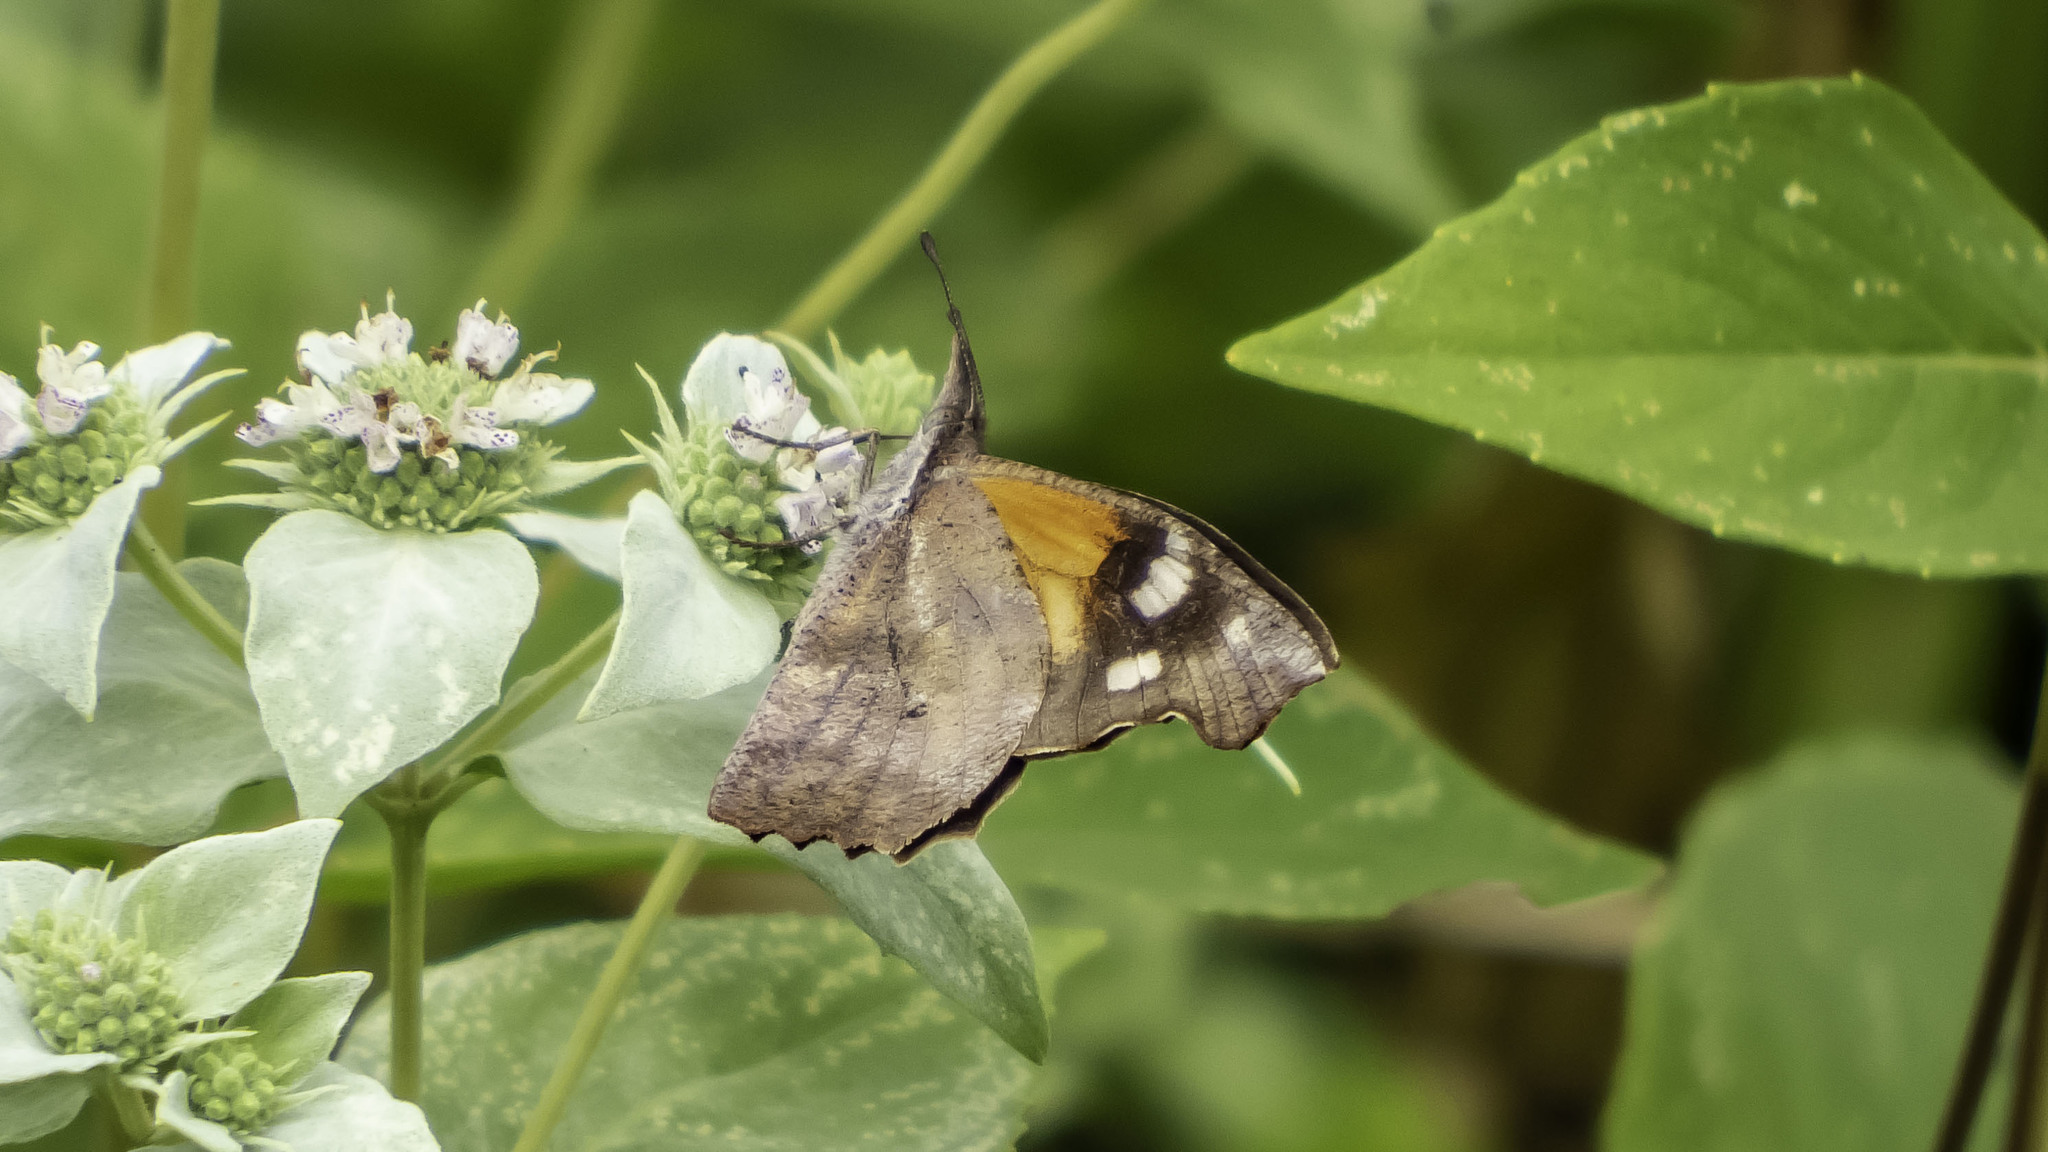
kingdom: Animalia
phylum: Arthropoda
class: Insecta
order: Lepidoptera
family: Nymphalidae
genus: Libytheana
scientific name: Libytheana carinenta
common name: American snout
